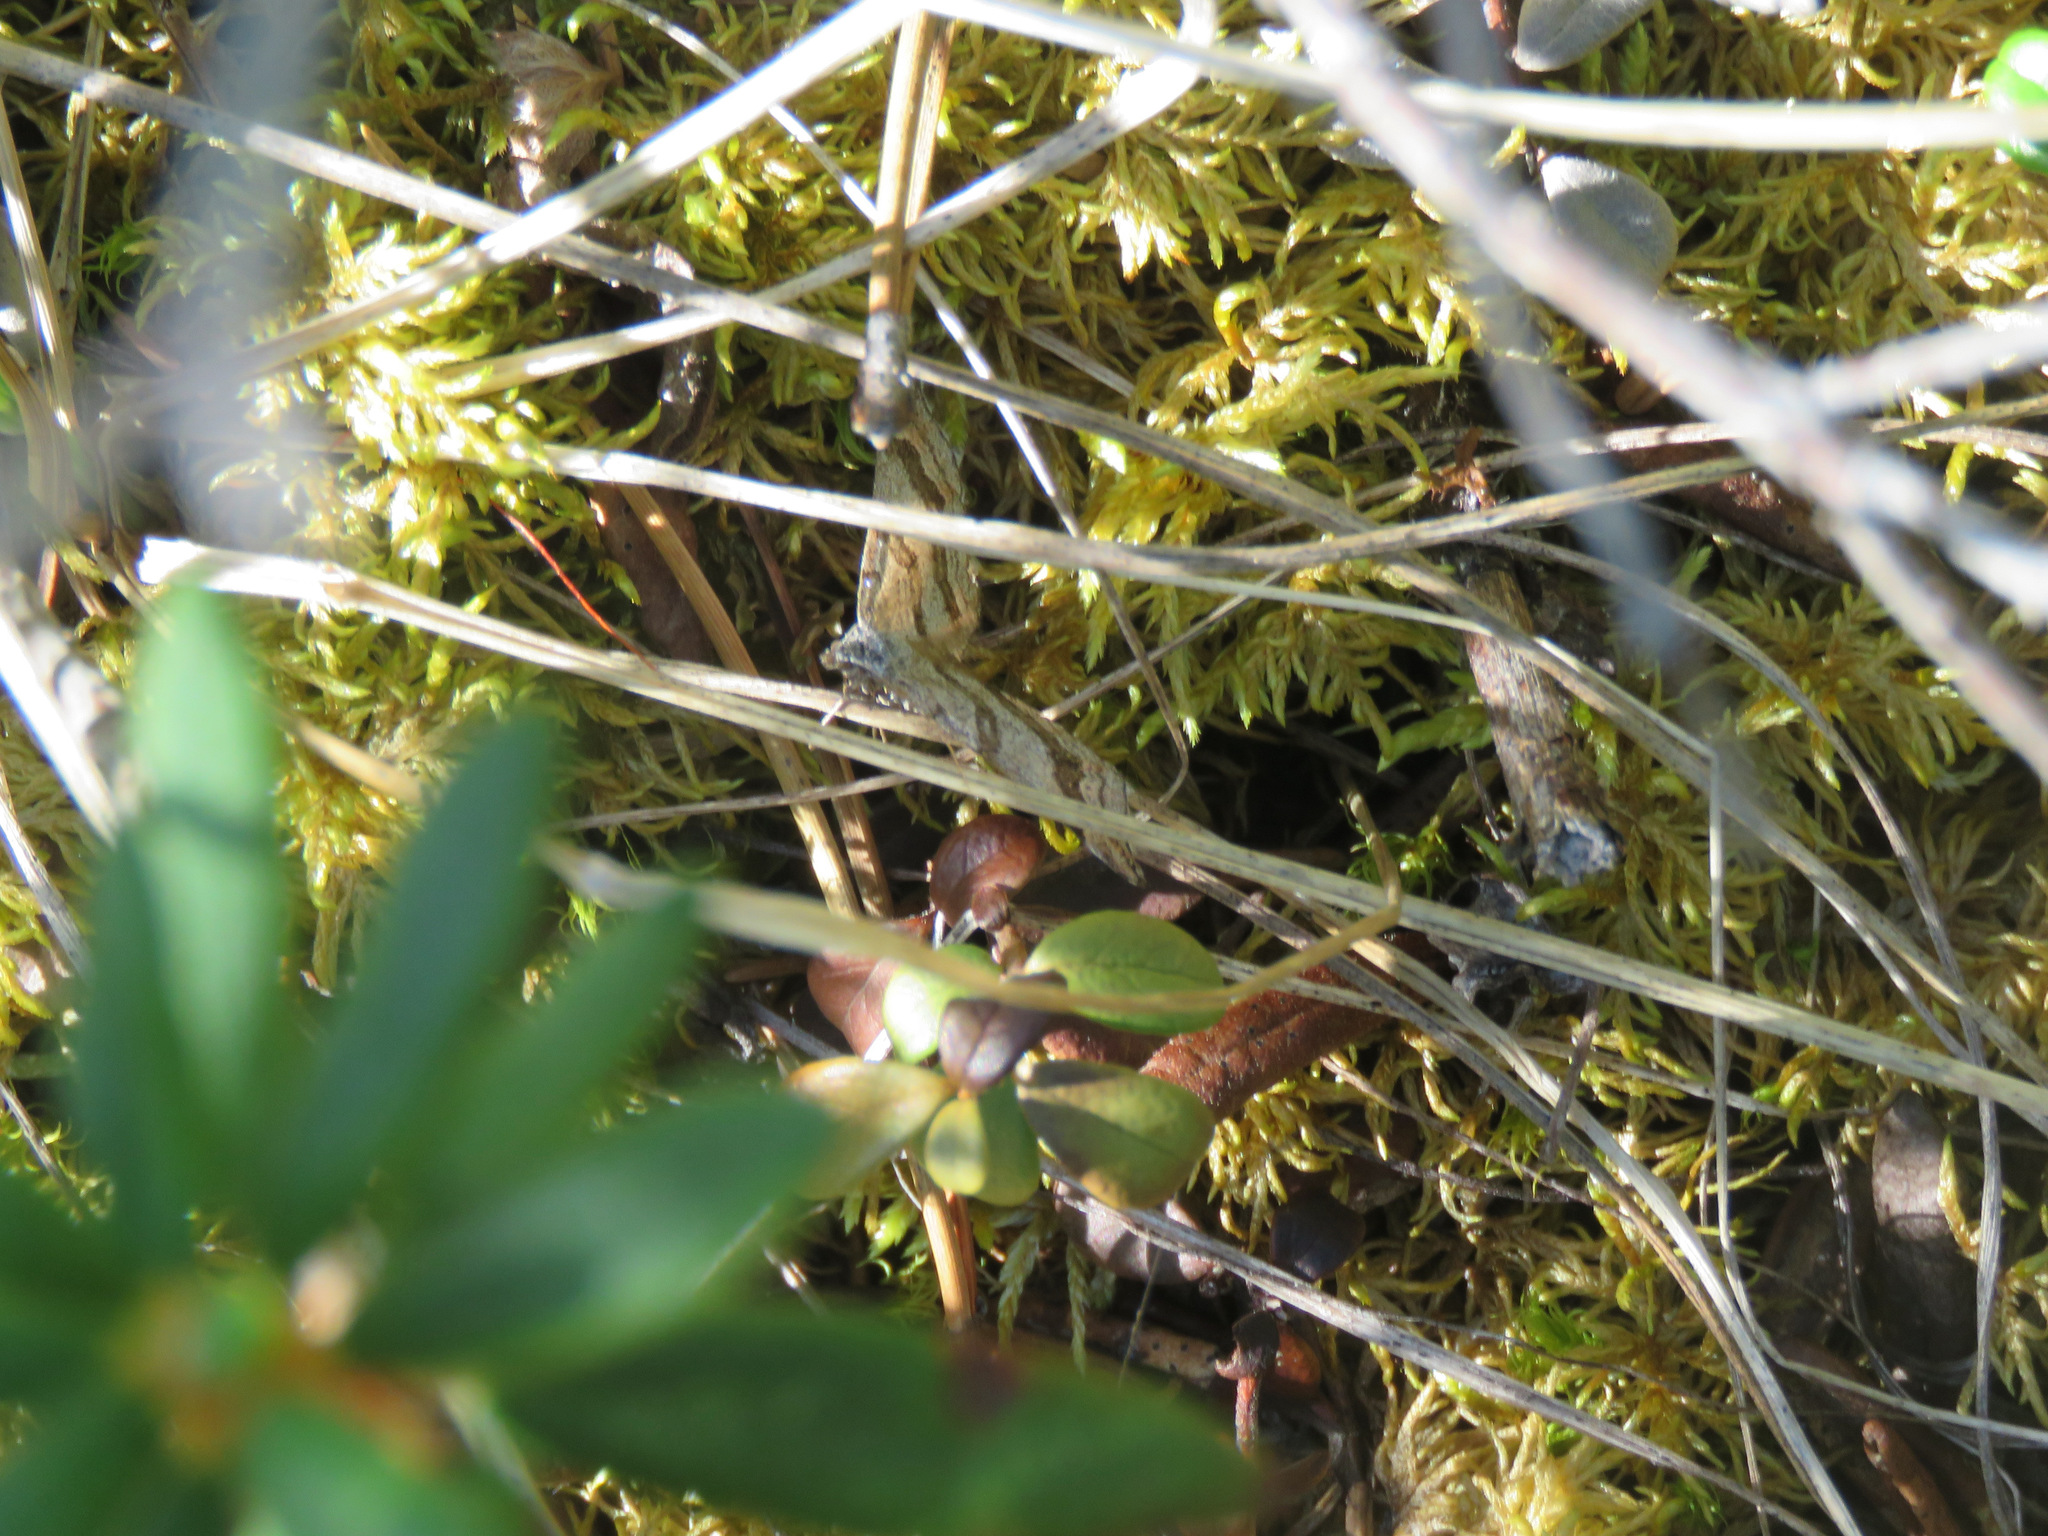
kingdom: Animalia
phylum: Arthropoda
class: Insecta
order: Lepidoptera
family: Geometridae
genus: Carsia
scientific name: Carsia sororiata
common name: Manchester treble-bar
